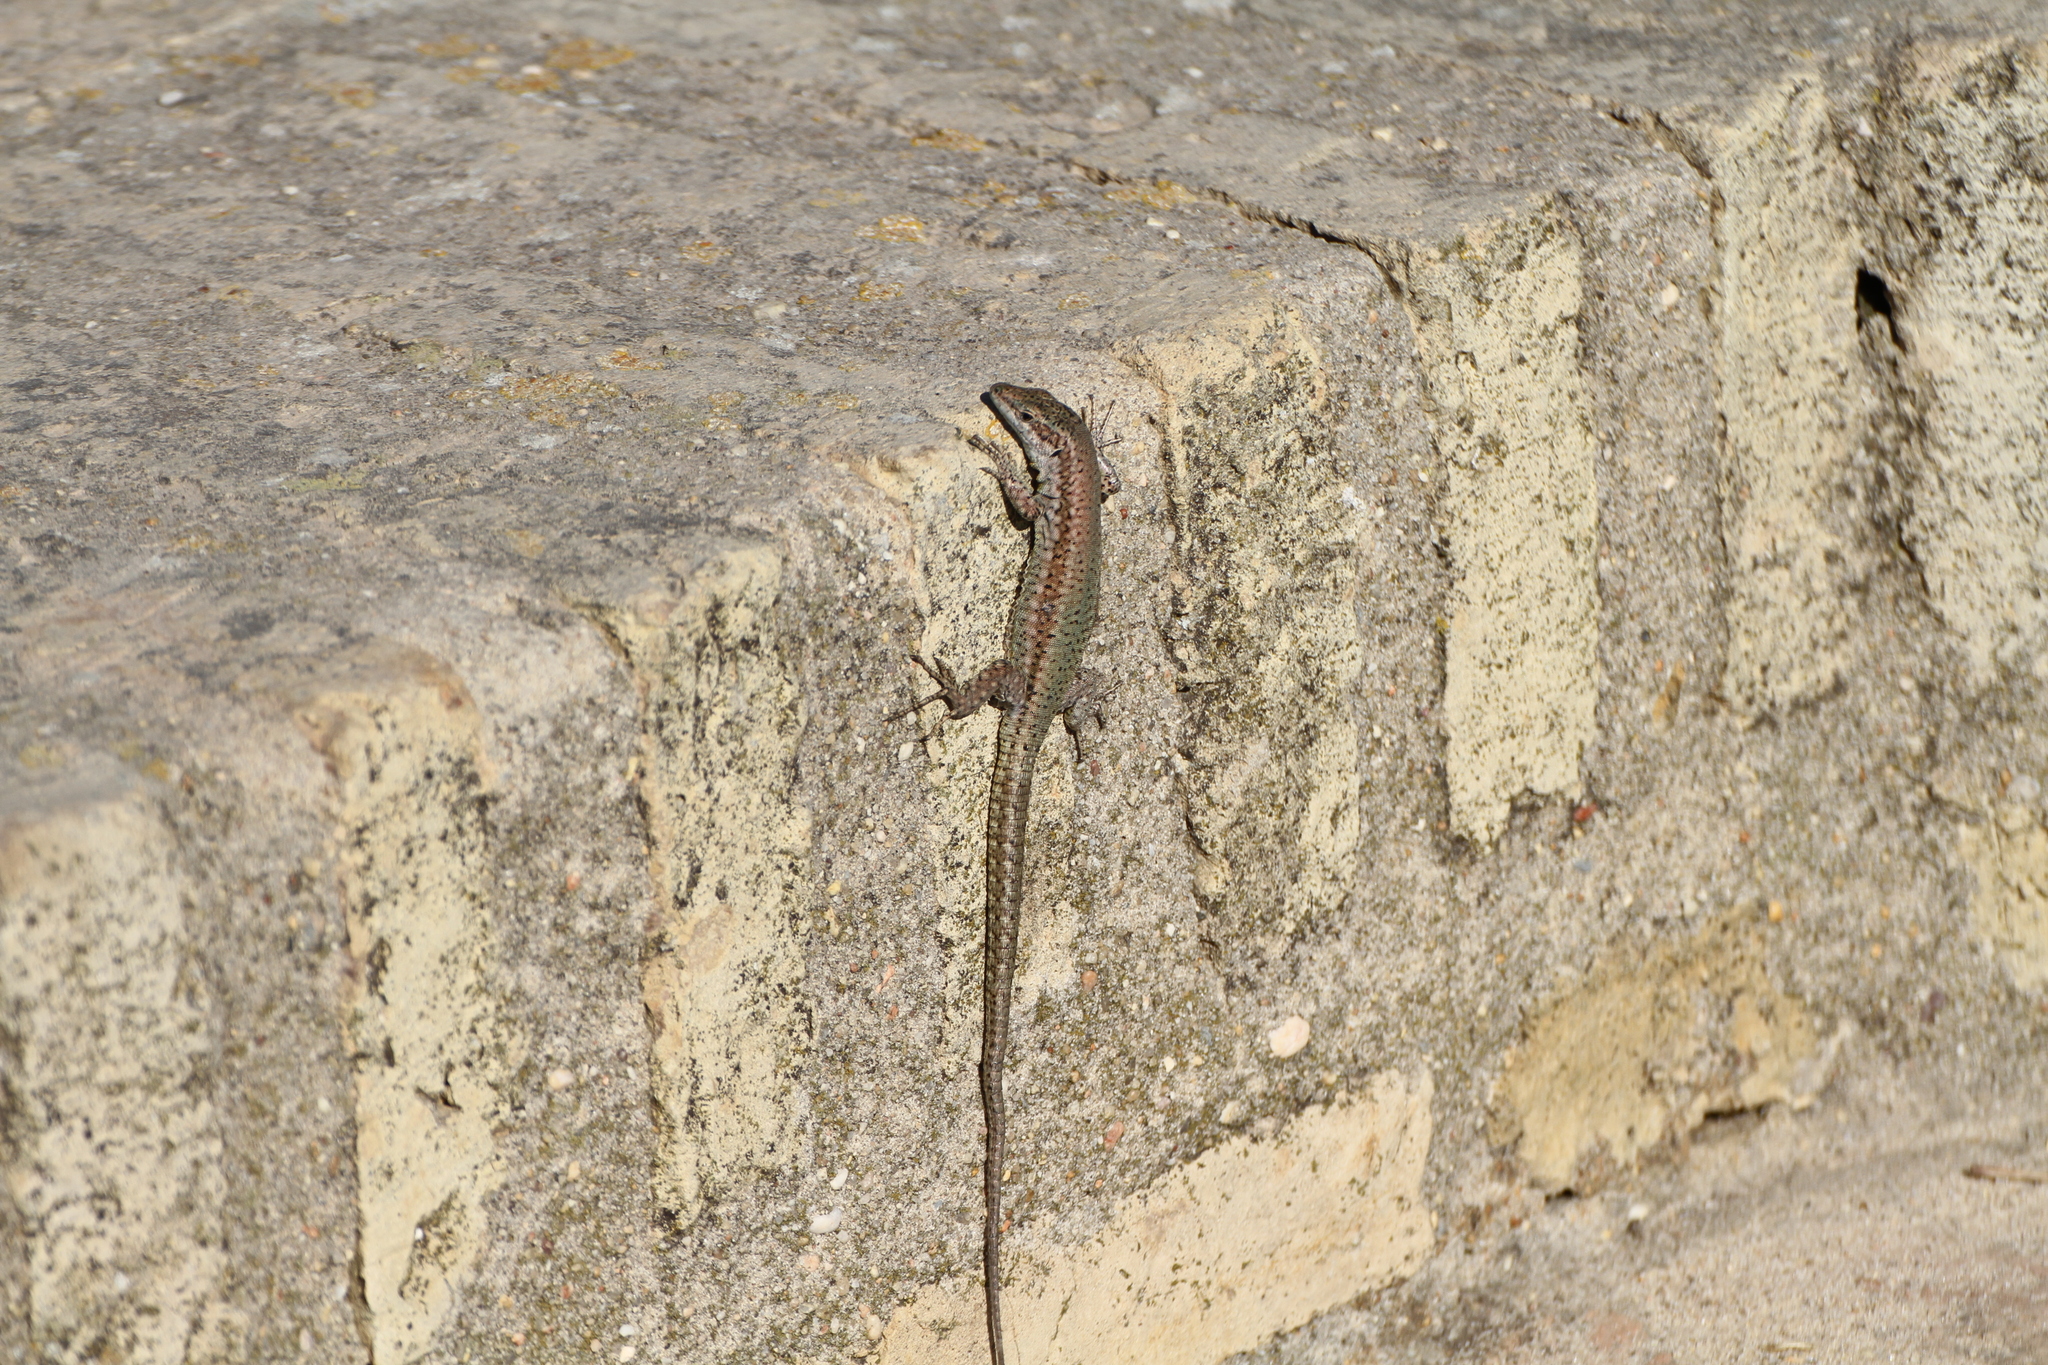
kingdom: Animalia
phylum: Chordata
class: Squamata
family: Lacertidae
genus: Podarcis
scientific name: Podarcis vaucheri
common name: Vaucher's wall lizard
